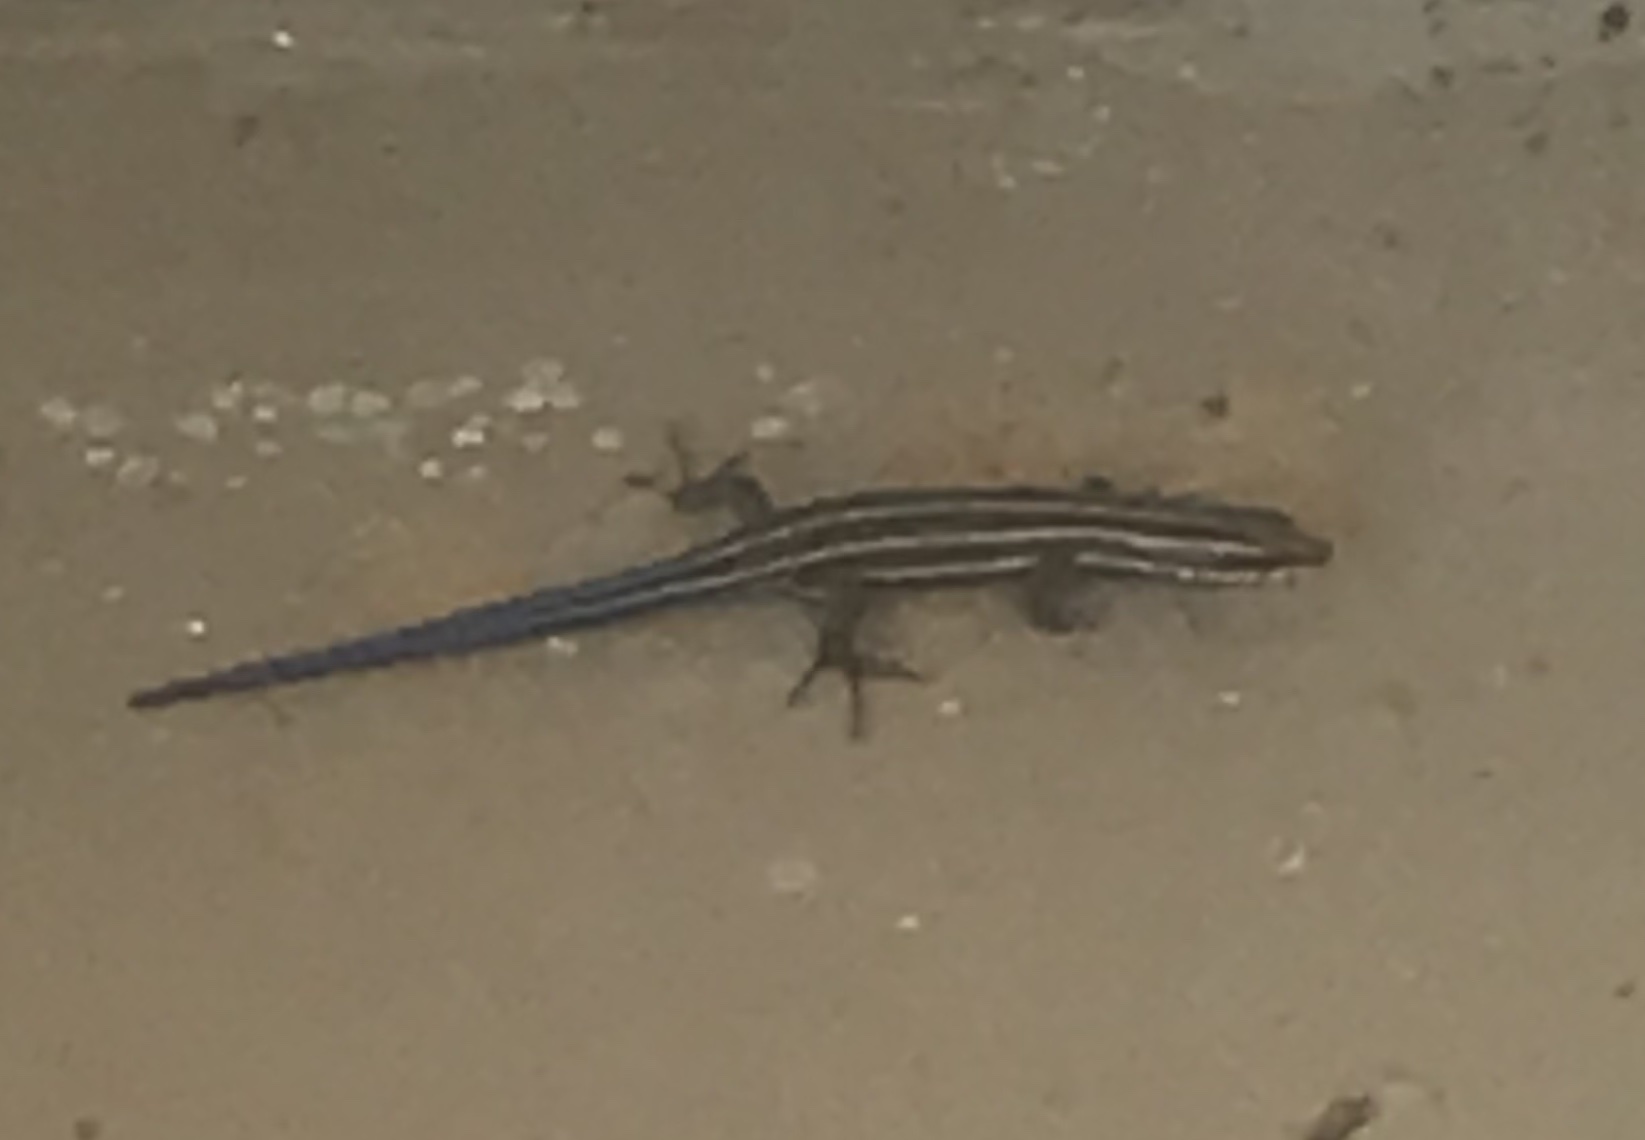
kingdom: Animalia
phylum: Chordata
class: Squamata
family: Scincidae
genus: Plestiodon
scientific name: Plestiodon
